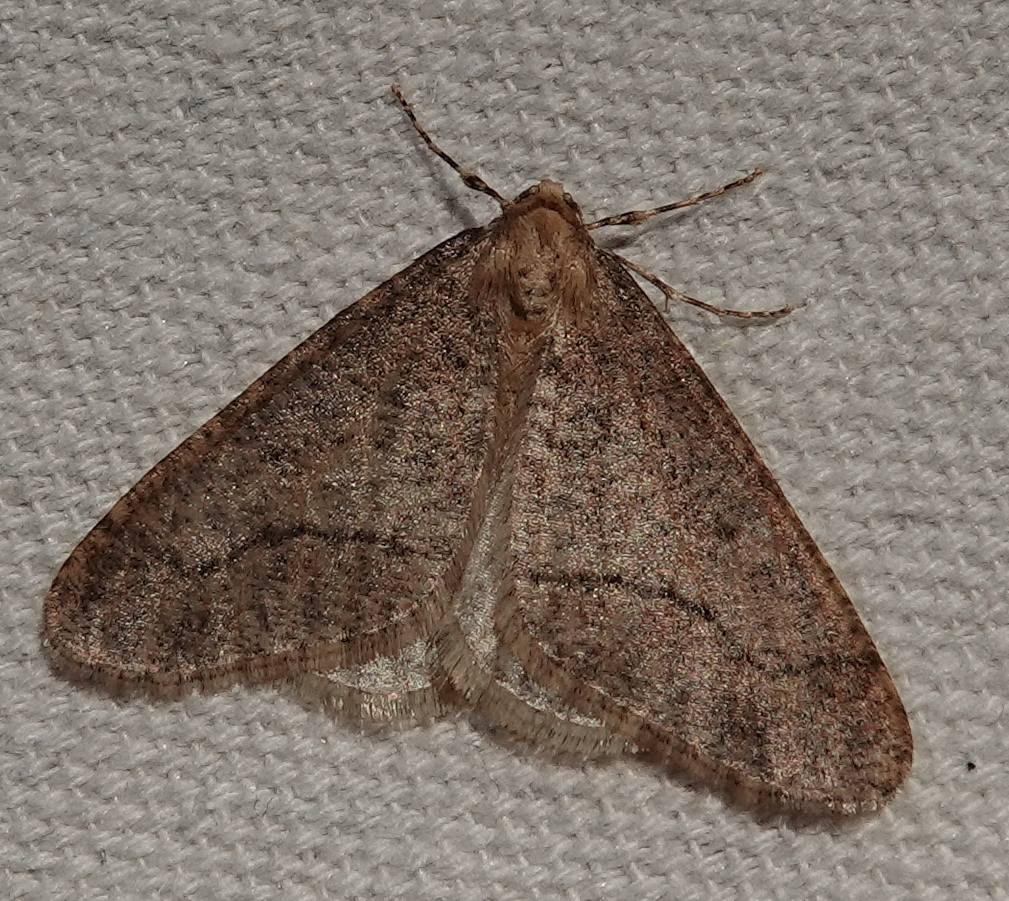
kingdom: Animalia
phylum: Arthropoda
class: Insecta
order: Lepidoptera
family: Geometridae
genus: Erannis
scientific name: Erannis tiliaria
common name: Linden looper
